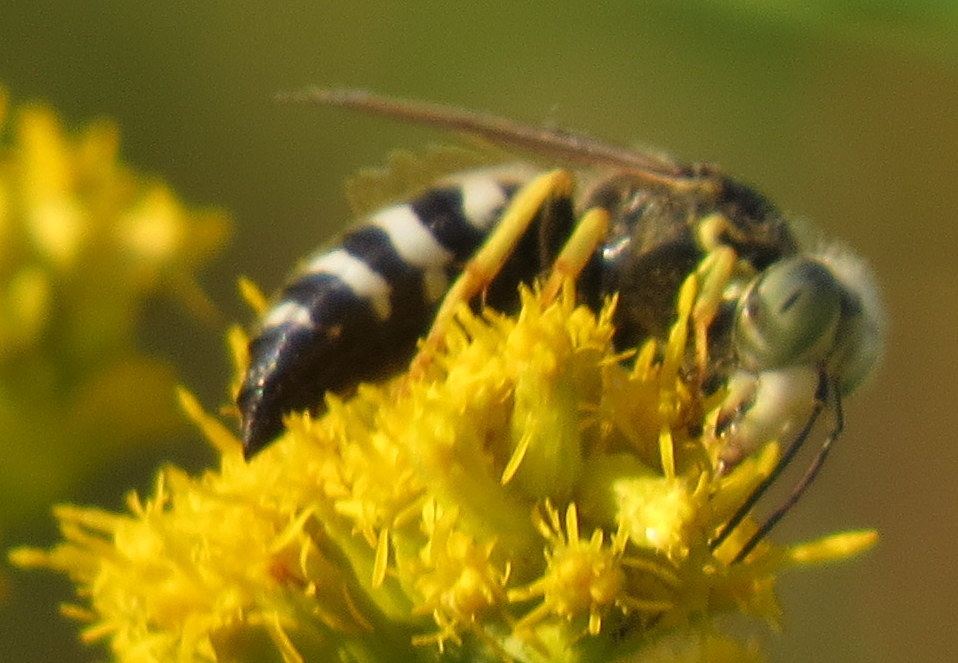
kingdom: Animalia
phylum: Arthropoda
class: Insecta
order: Hymenoptera
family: Crabronidae
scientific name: Crabronidae
